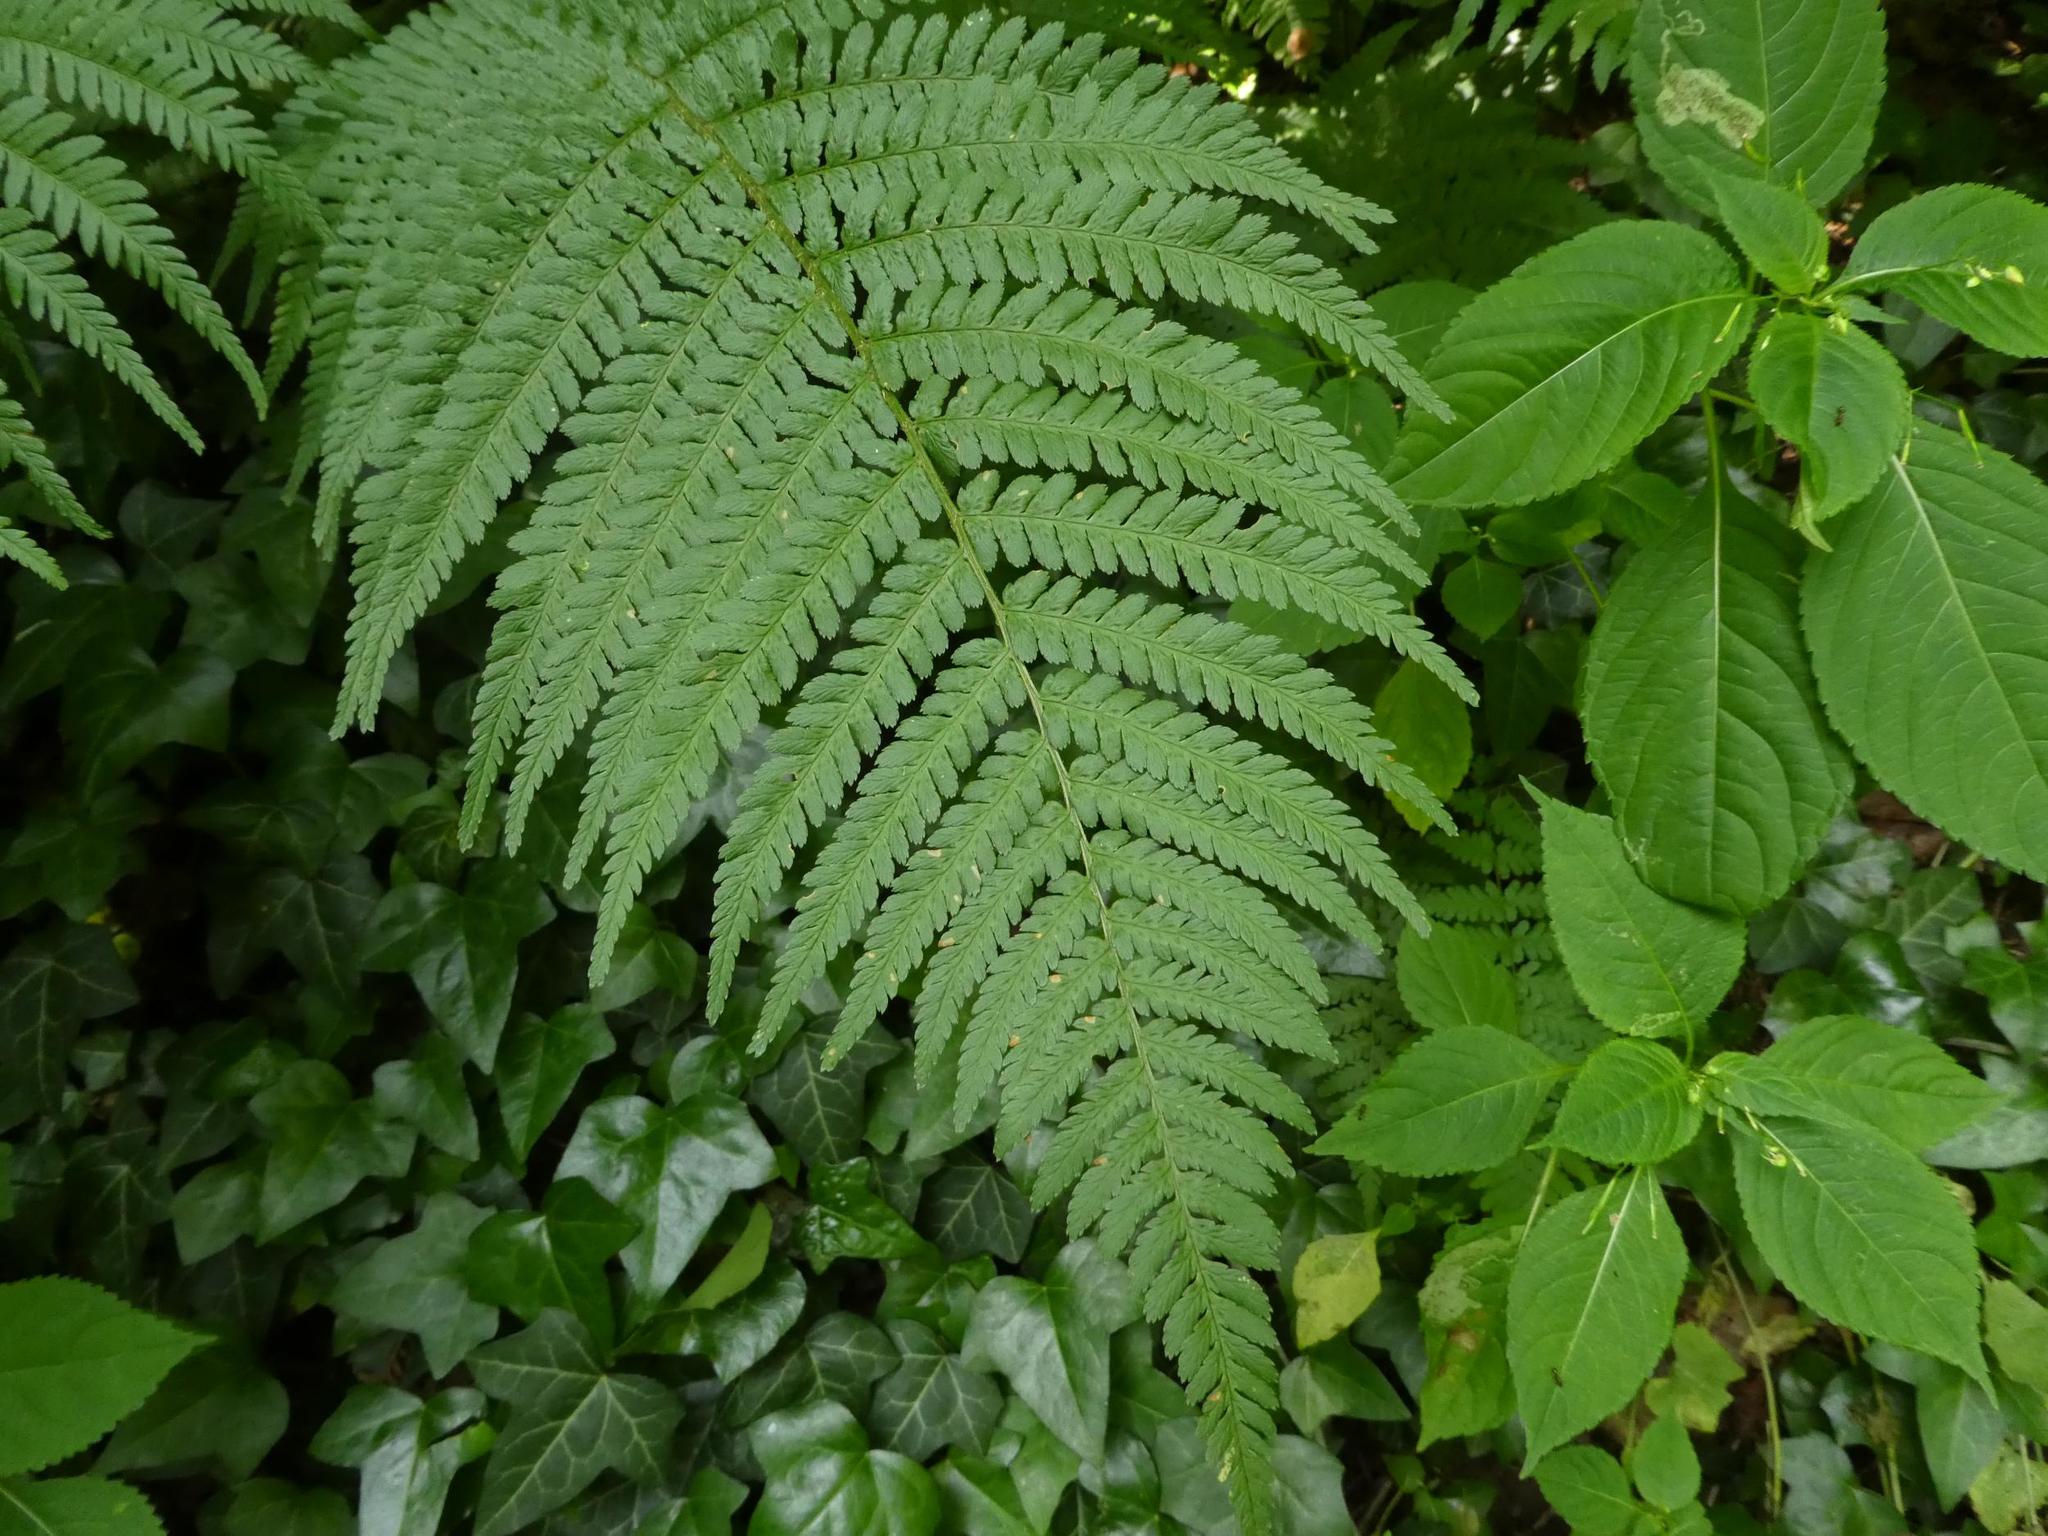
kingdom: Plantae
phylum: Tracheophyta
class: Polypodiopsida
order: Polypodiales
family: Dryopteridaceae
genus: Dryopteris
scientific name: Dryopteris filix-mas
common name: Male fern
